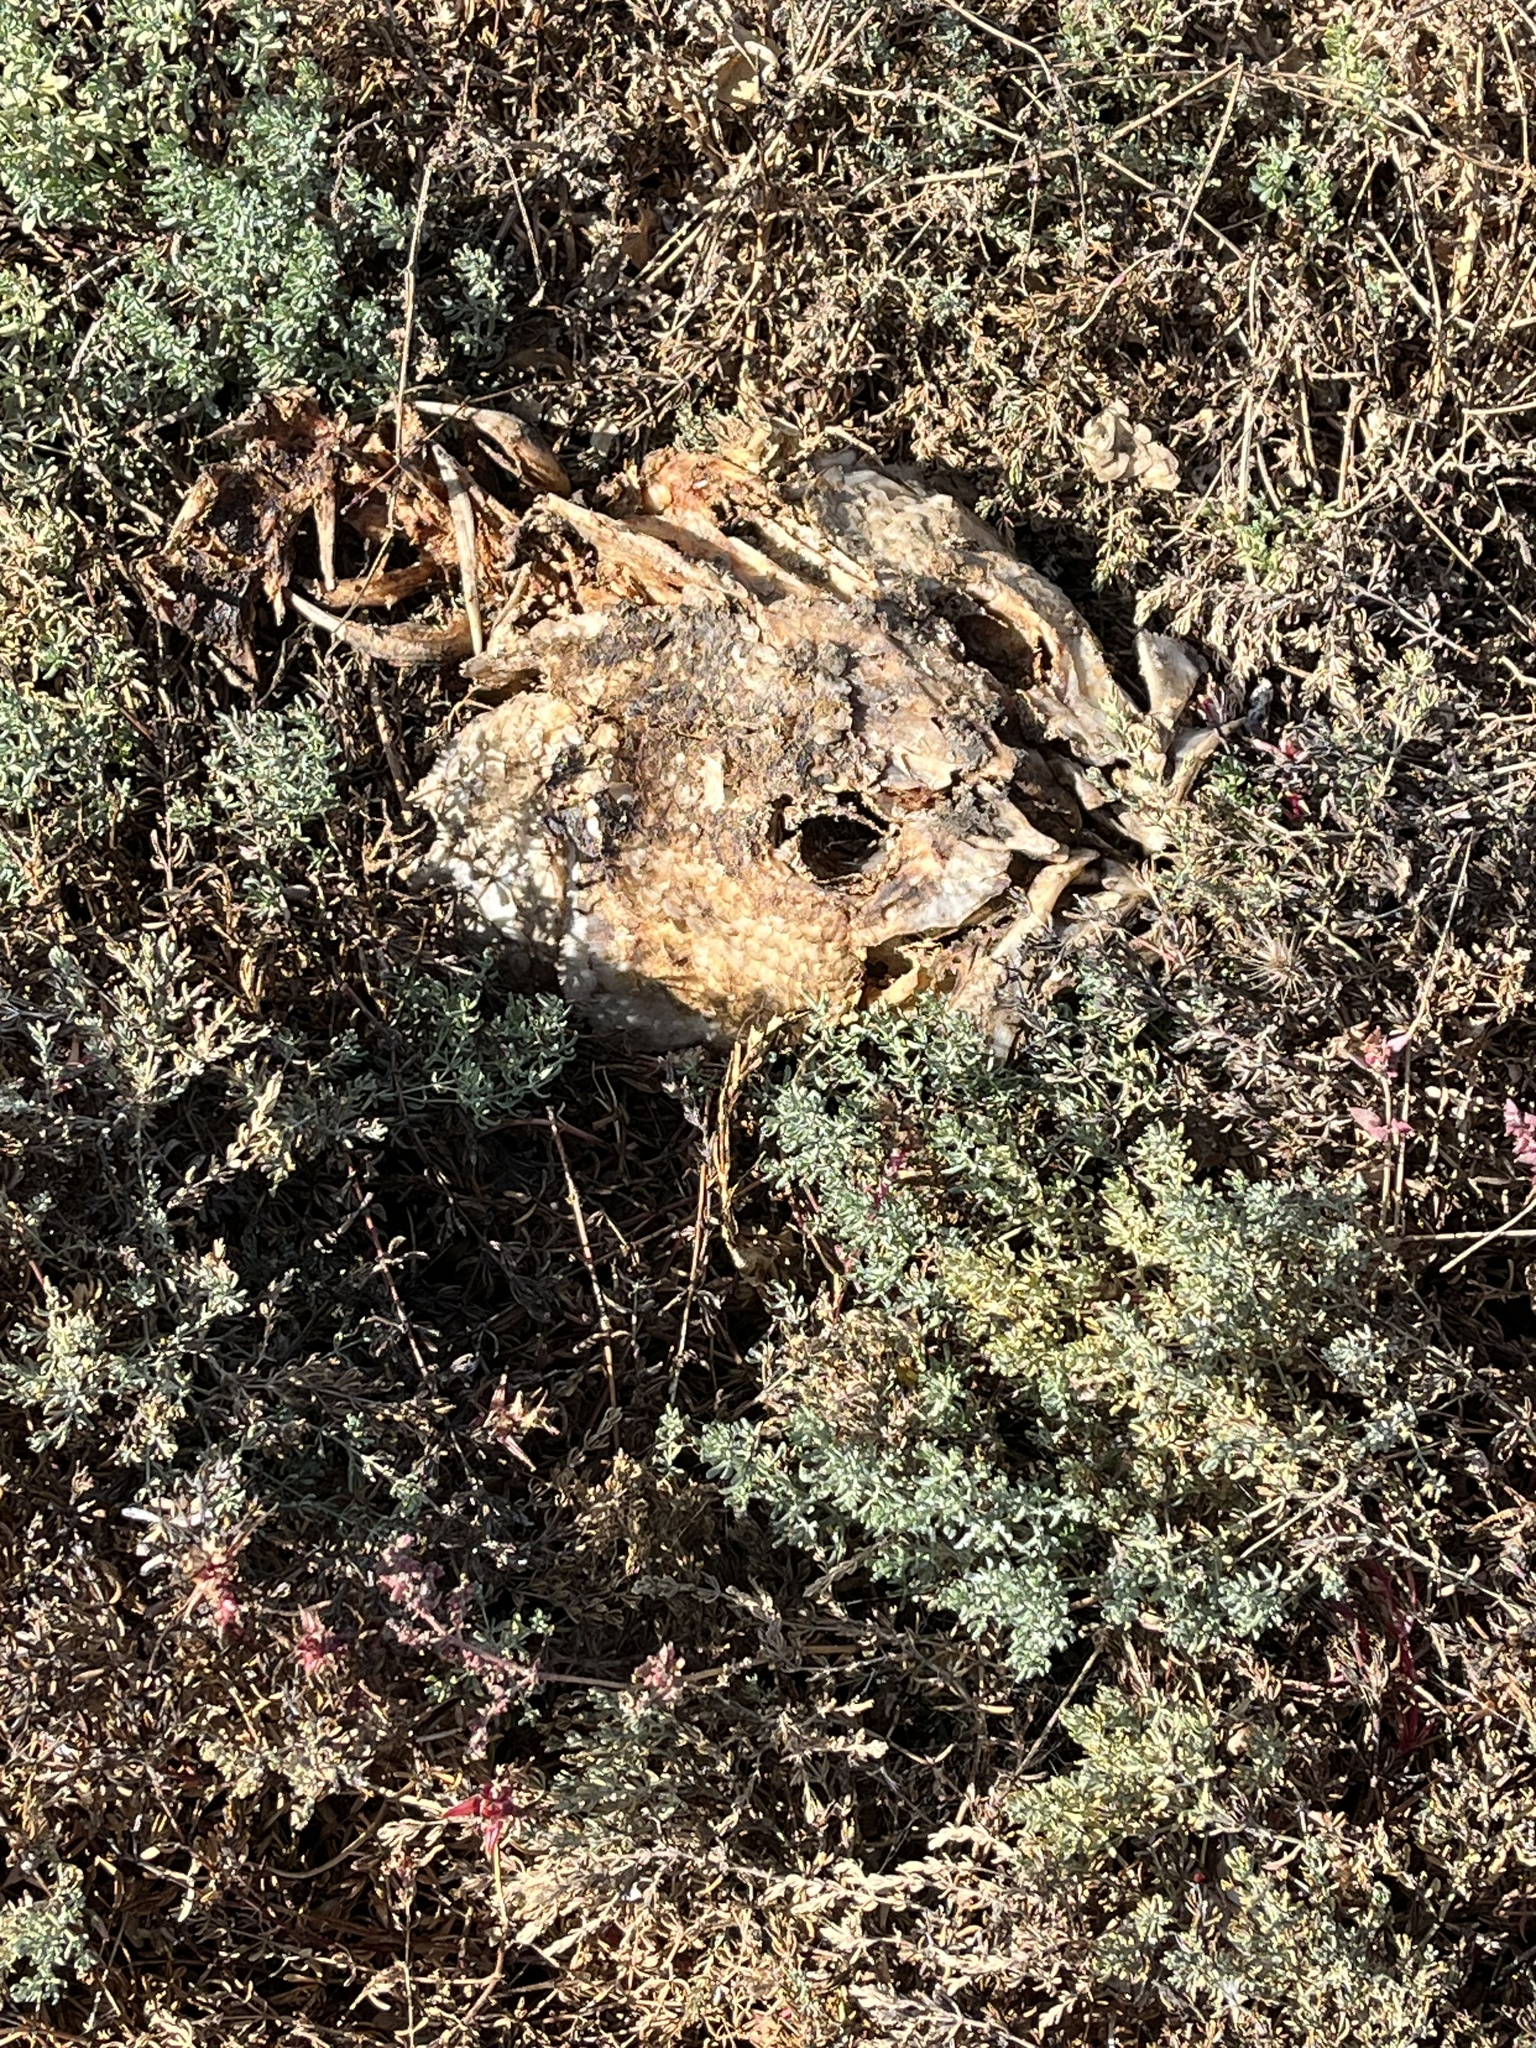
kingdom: Animalia
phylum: Chordata
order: Perciformes
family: Moronidae
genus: Morone
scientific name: Morone saxatilis
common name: Striped bass
